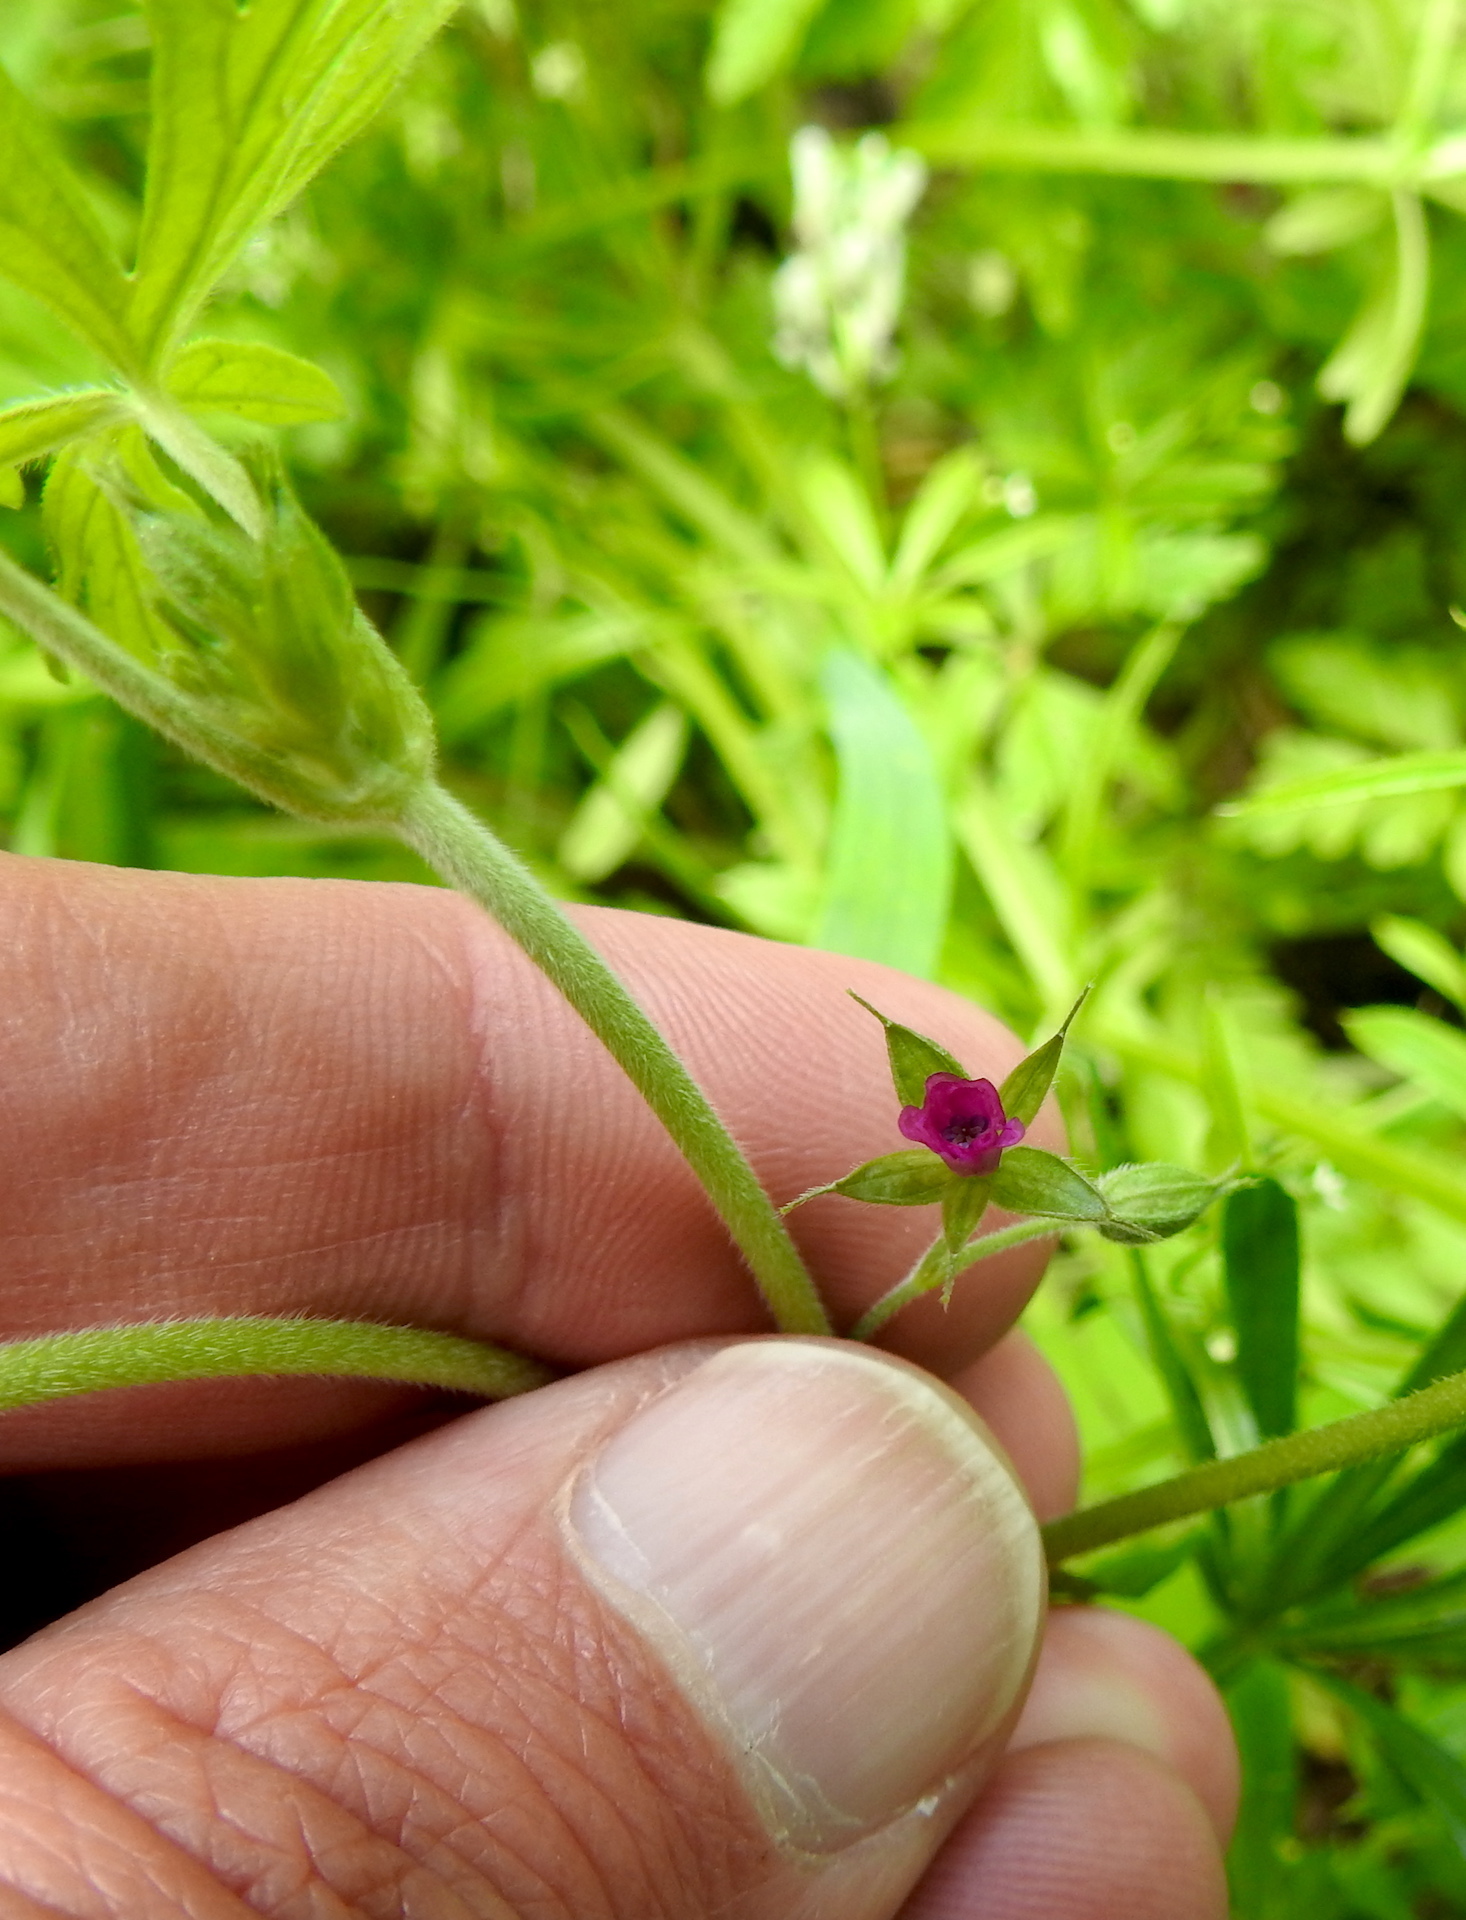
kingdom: Plantae
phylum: Tracheophyta
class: Magnoliopsida
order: Geraniales
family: Geraniaceae
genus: Geranium
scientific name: Geranium dissectum
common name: Cut-leaved crane's-bill
